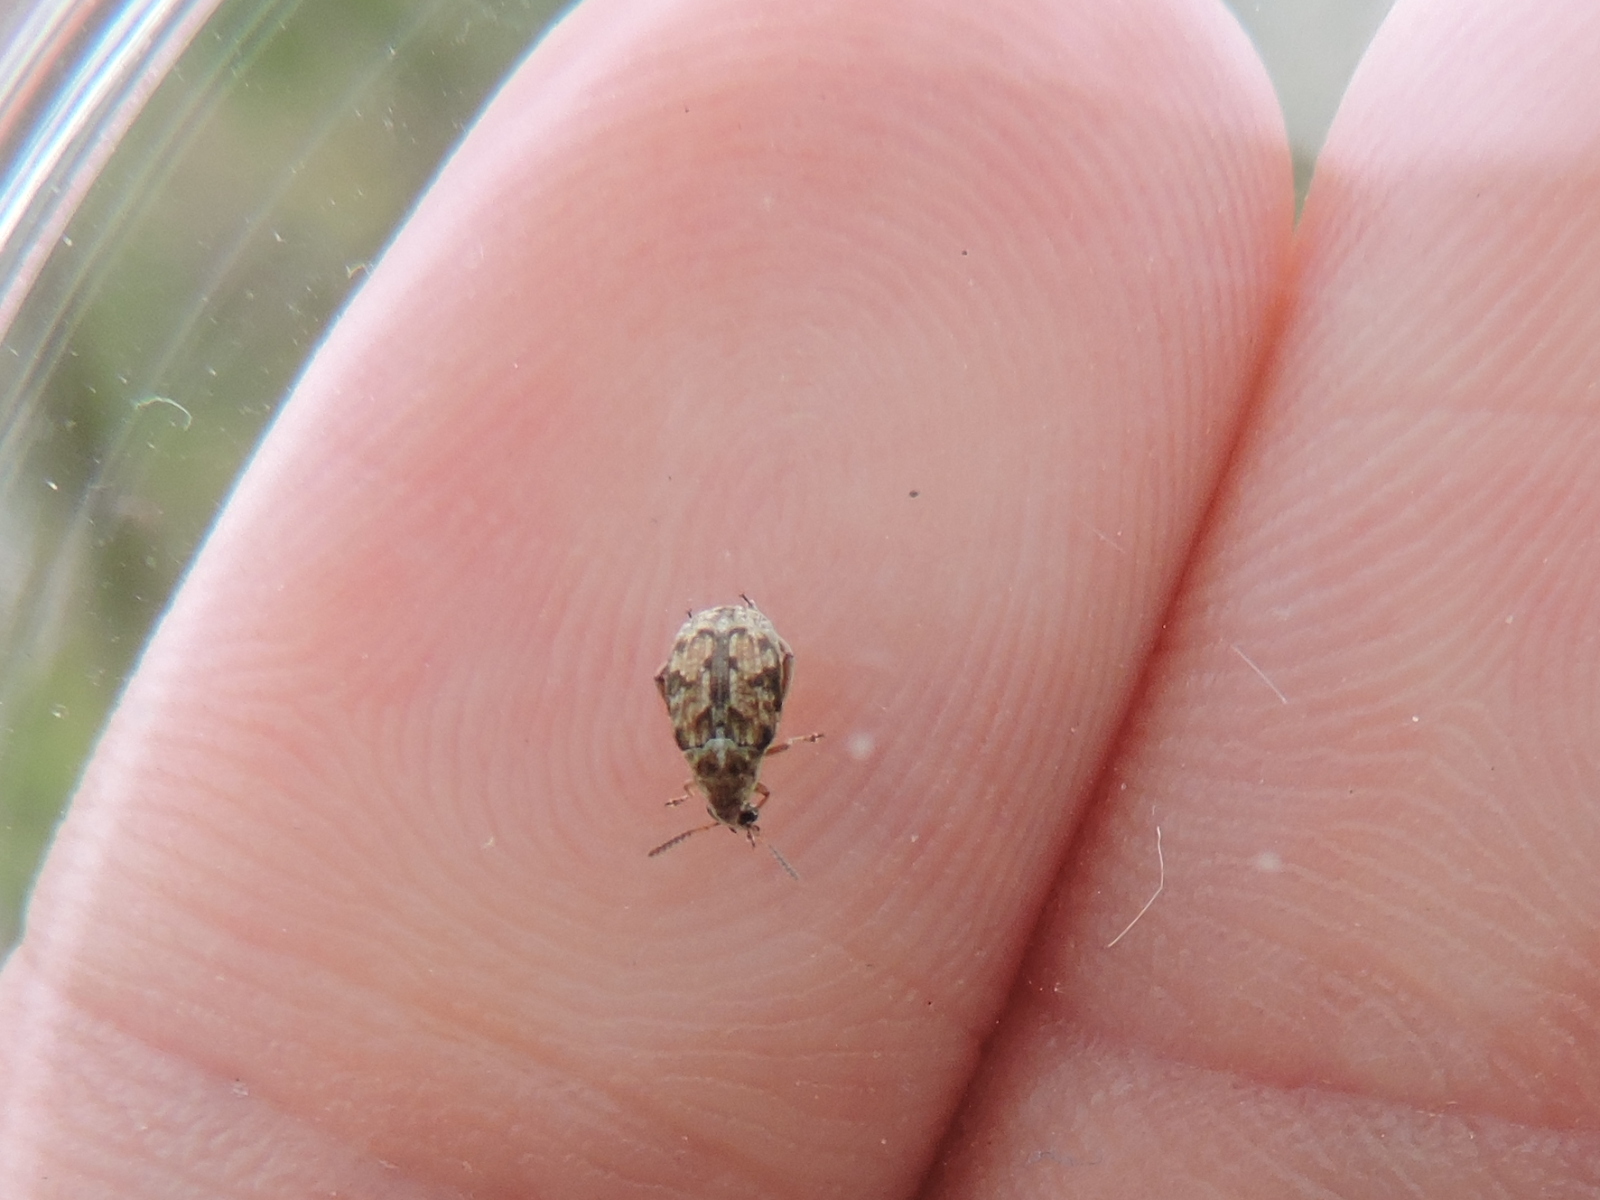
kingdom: Animalia
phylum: Arthropoda
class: Insecta
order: Coleoptera
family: Chrysomelidae
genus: Algarobius
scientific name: Algarobius bottimeri
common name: Kiawe bruchid
